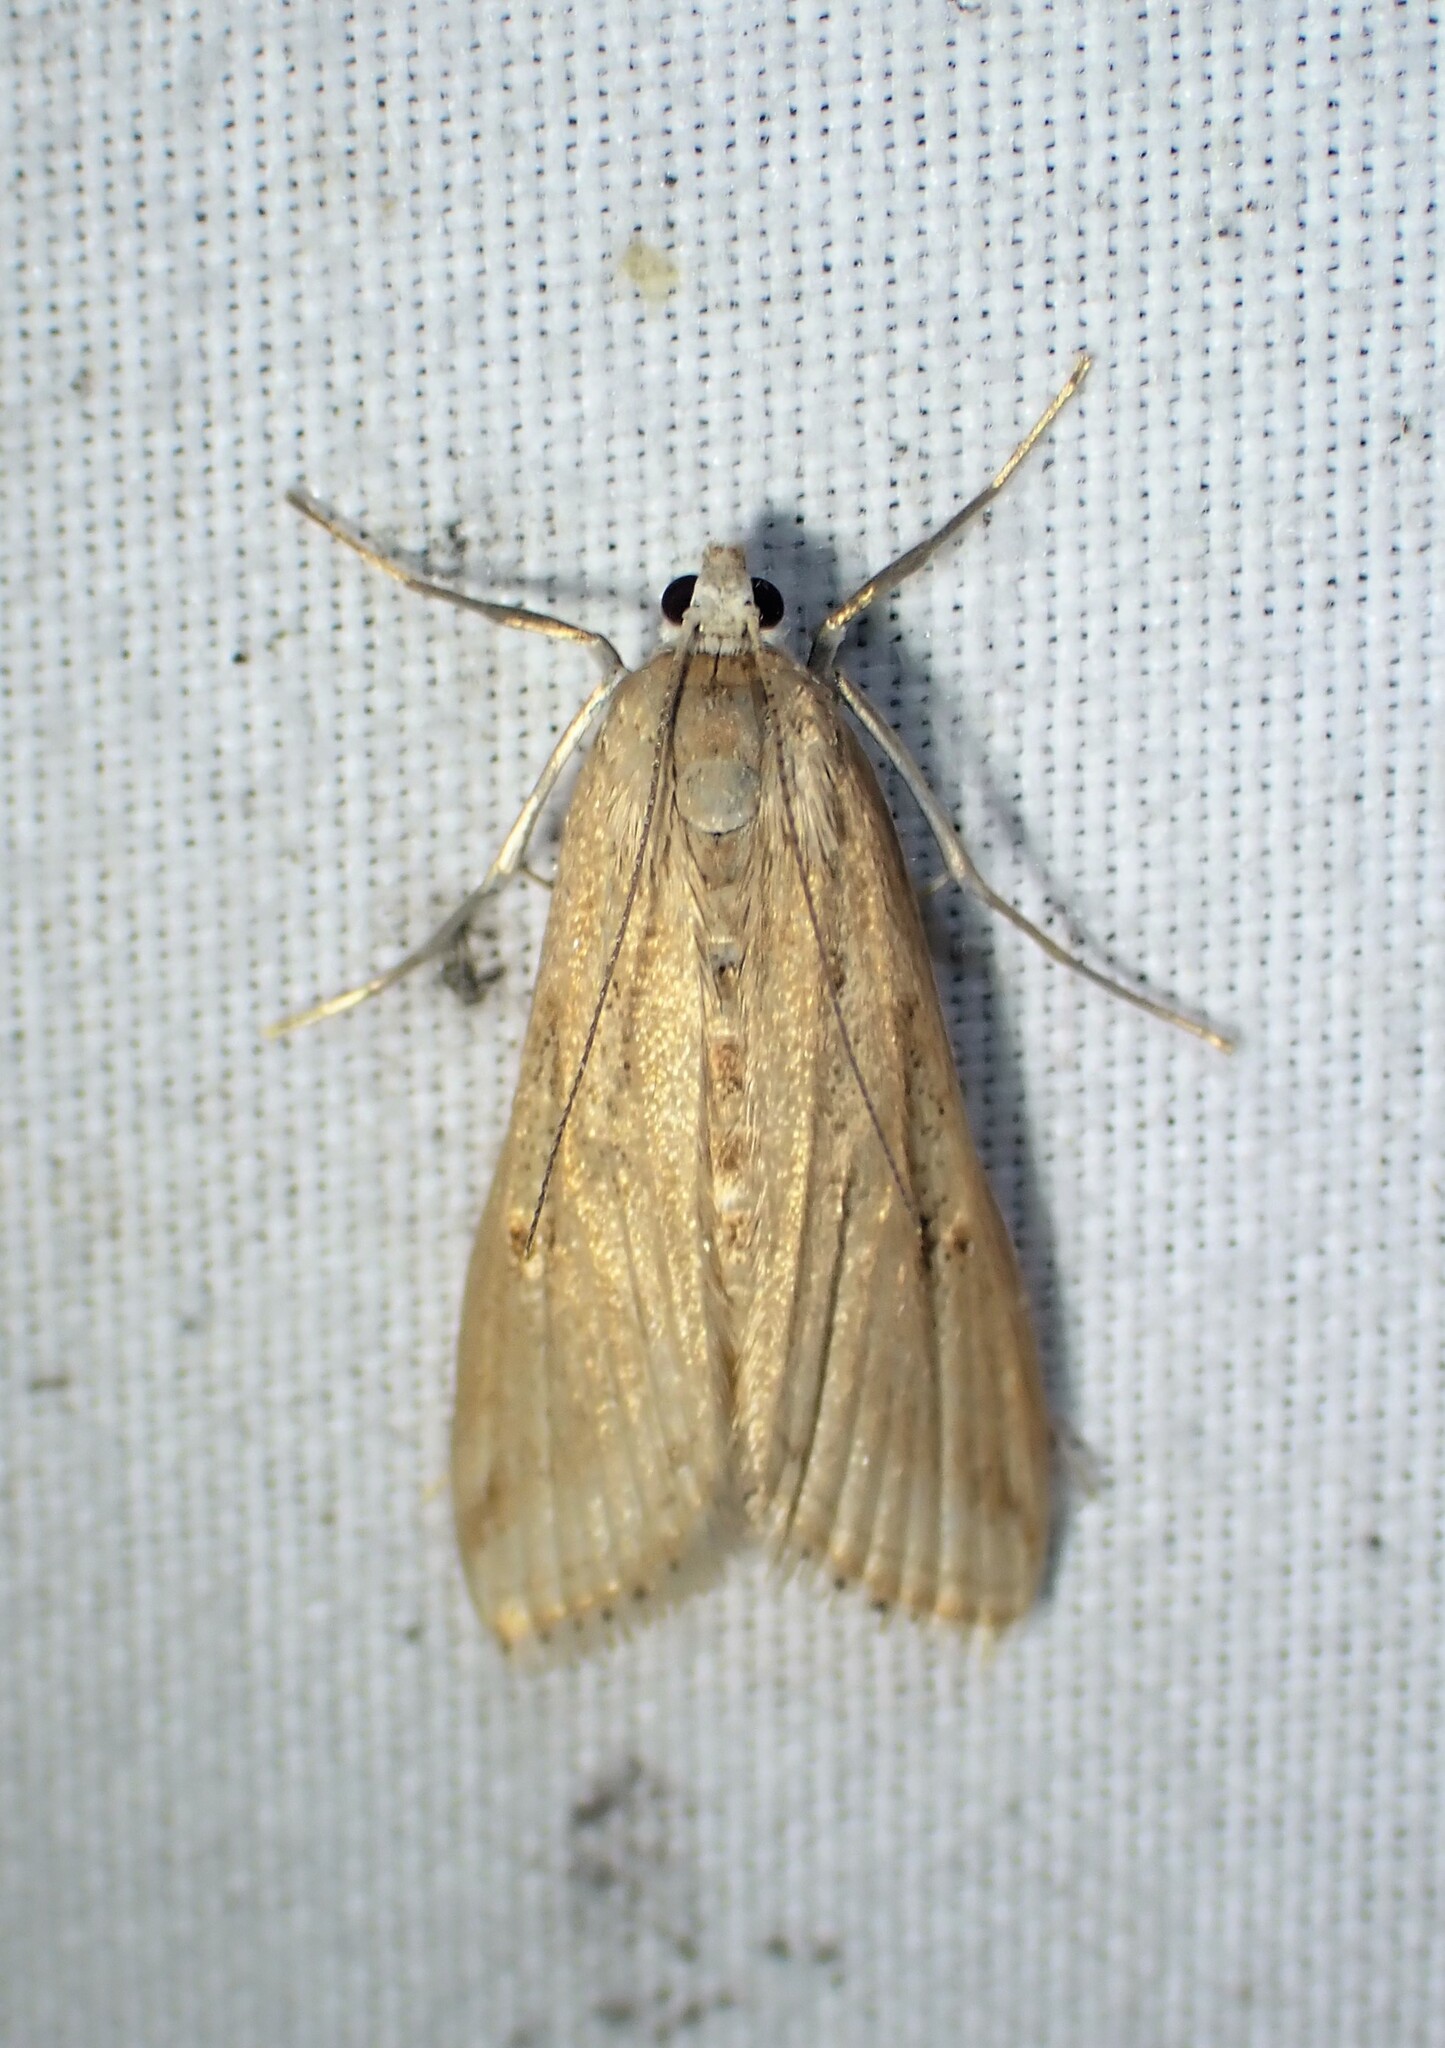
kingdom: Animalia
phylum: Arthropoda
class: Insecta
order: Lepidoptera
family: Crambidae
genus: Parapoynx
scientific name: Parapoynx allionealis
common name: Bladderwort casemaker
